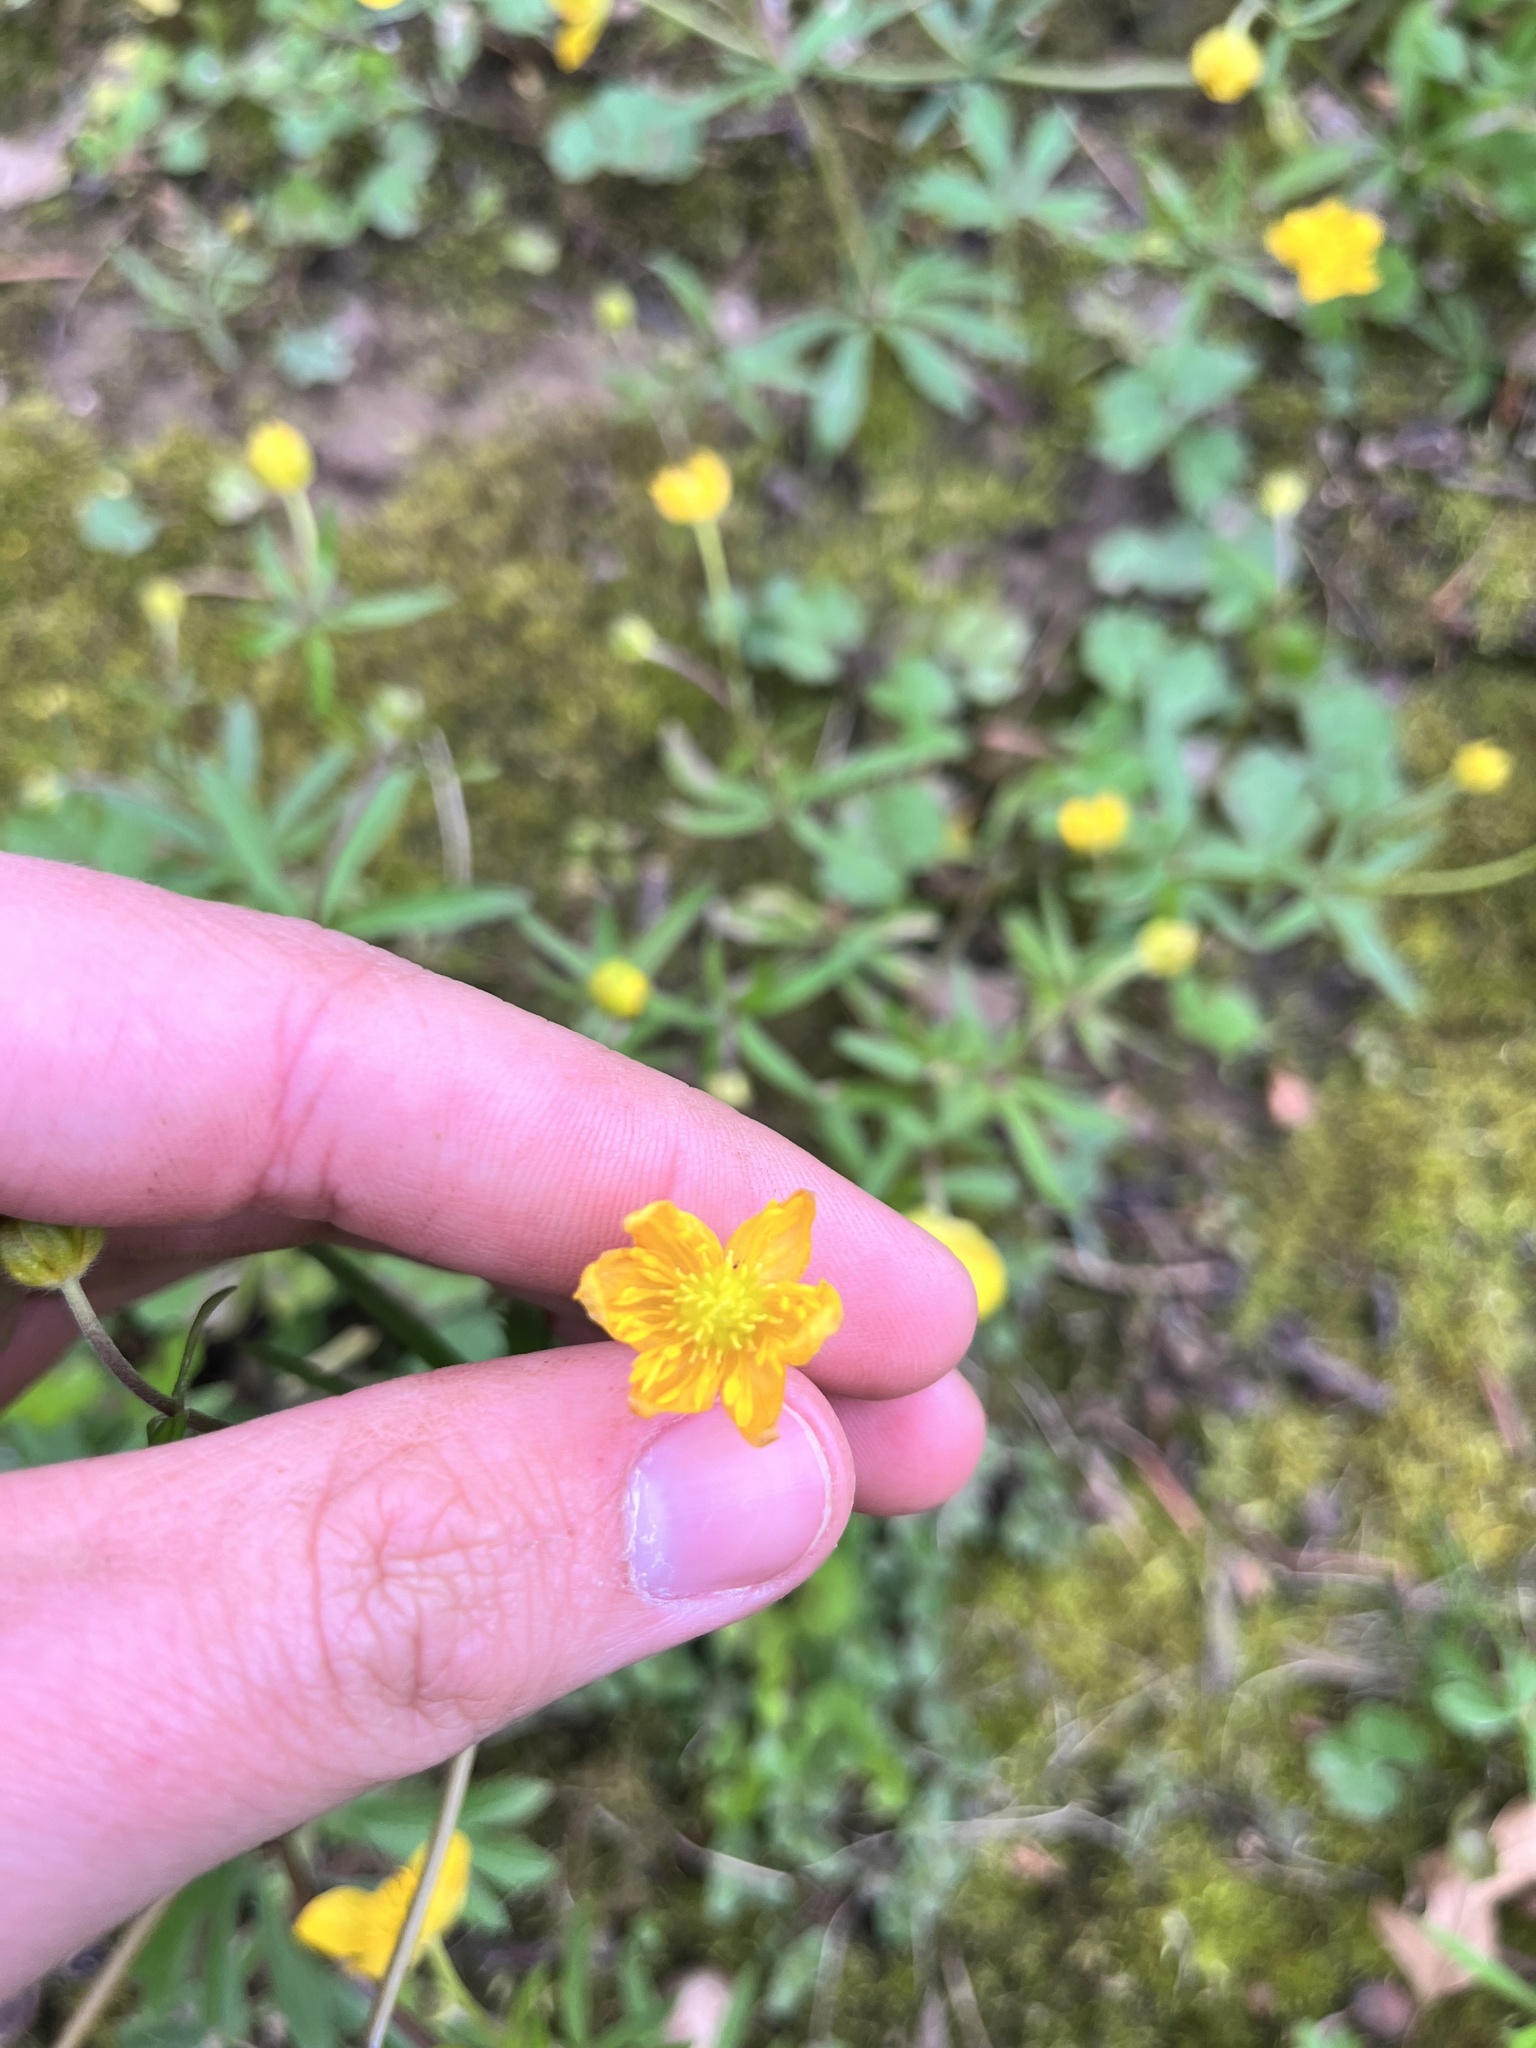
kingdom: Plantae
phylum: Tracheophyta
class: Magnoliopsida
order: Ranunculales
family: Ranunculaceae
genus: Ranunculus
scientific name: Ranunculus auricomus
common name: Goldilocks buttercup
